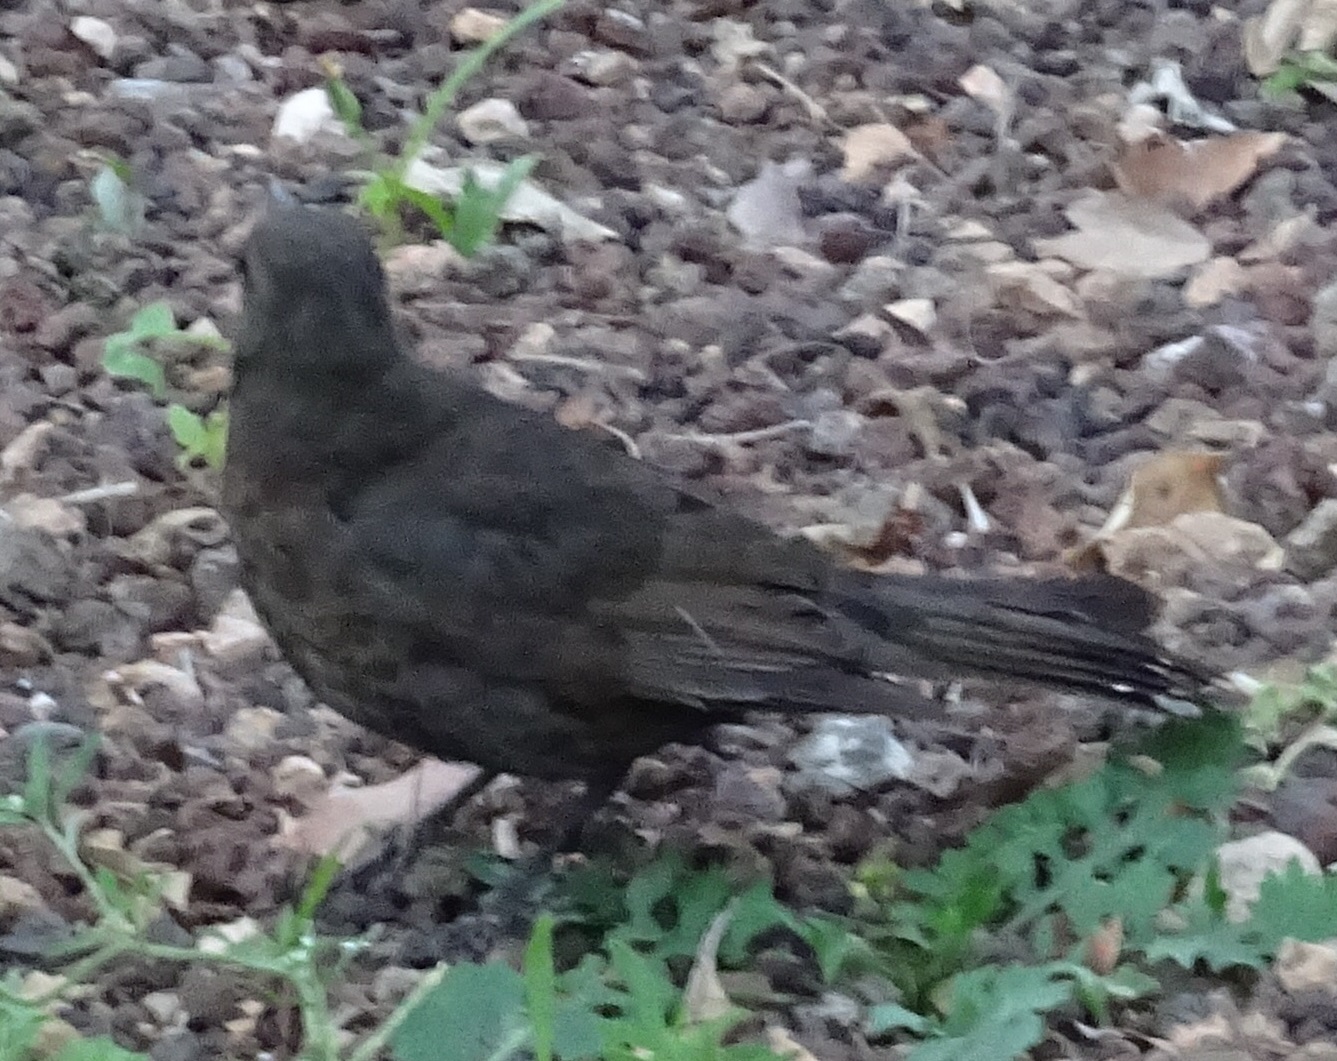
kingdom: Animalia
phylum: Chordata
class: Aves
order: Passeriformes
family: Turdidae
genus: Turdus
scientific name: Turdus merula
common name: Common blackbird
